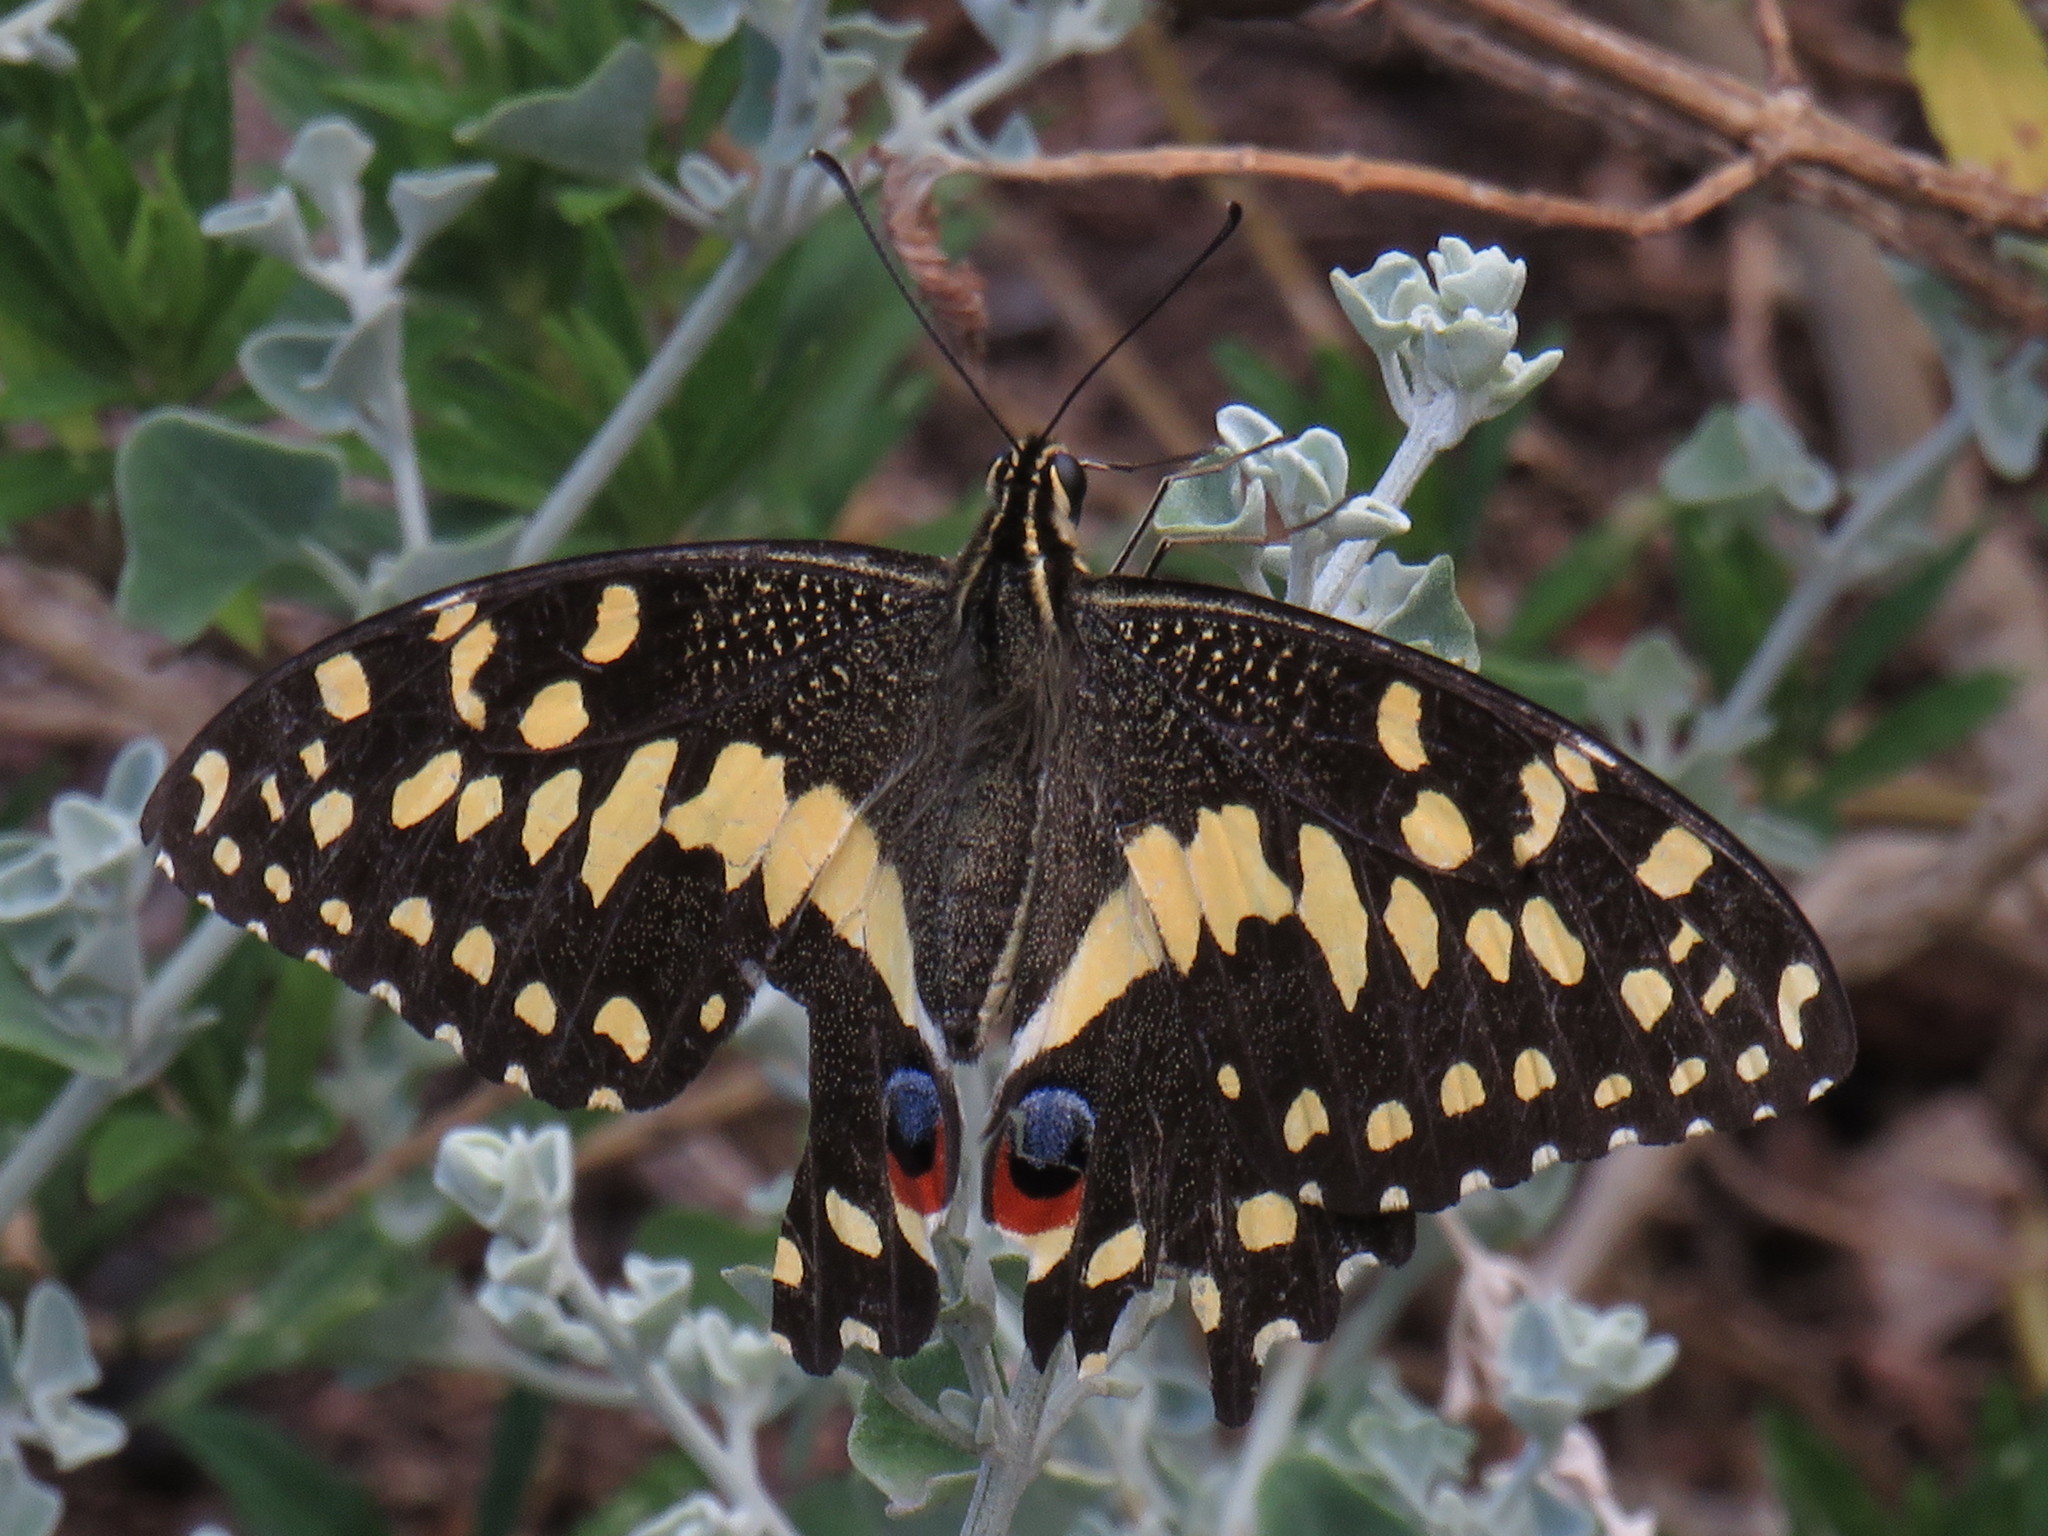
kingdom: Animalia
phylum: Arthropoda
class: Insecta
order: Lepidoptera
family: Papilionidae
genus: Papilio
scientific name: Papilio demodocus
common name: Christmas butterfly
